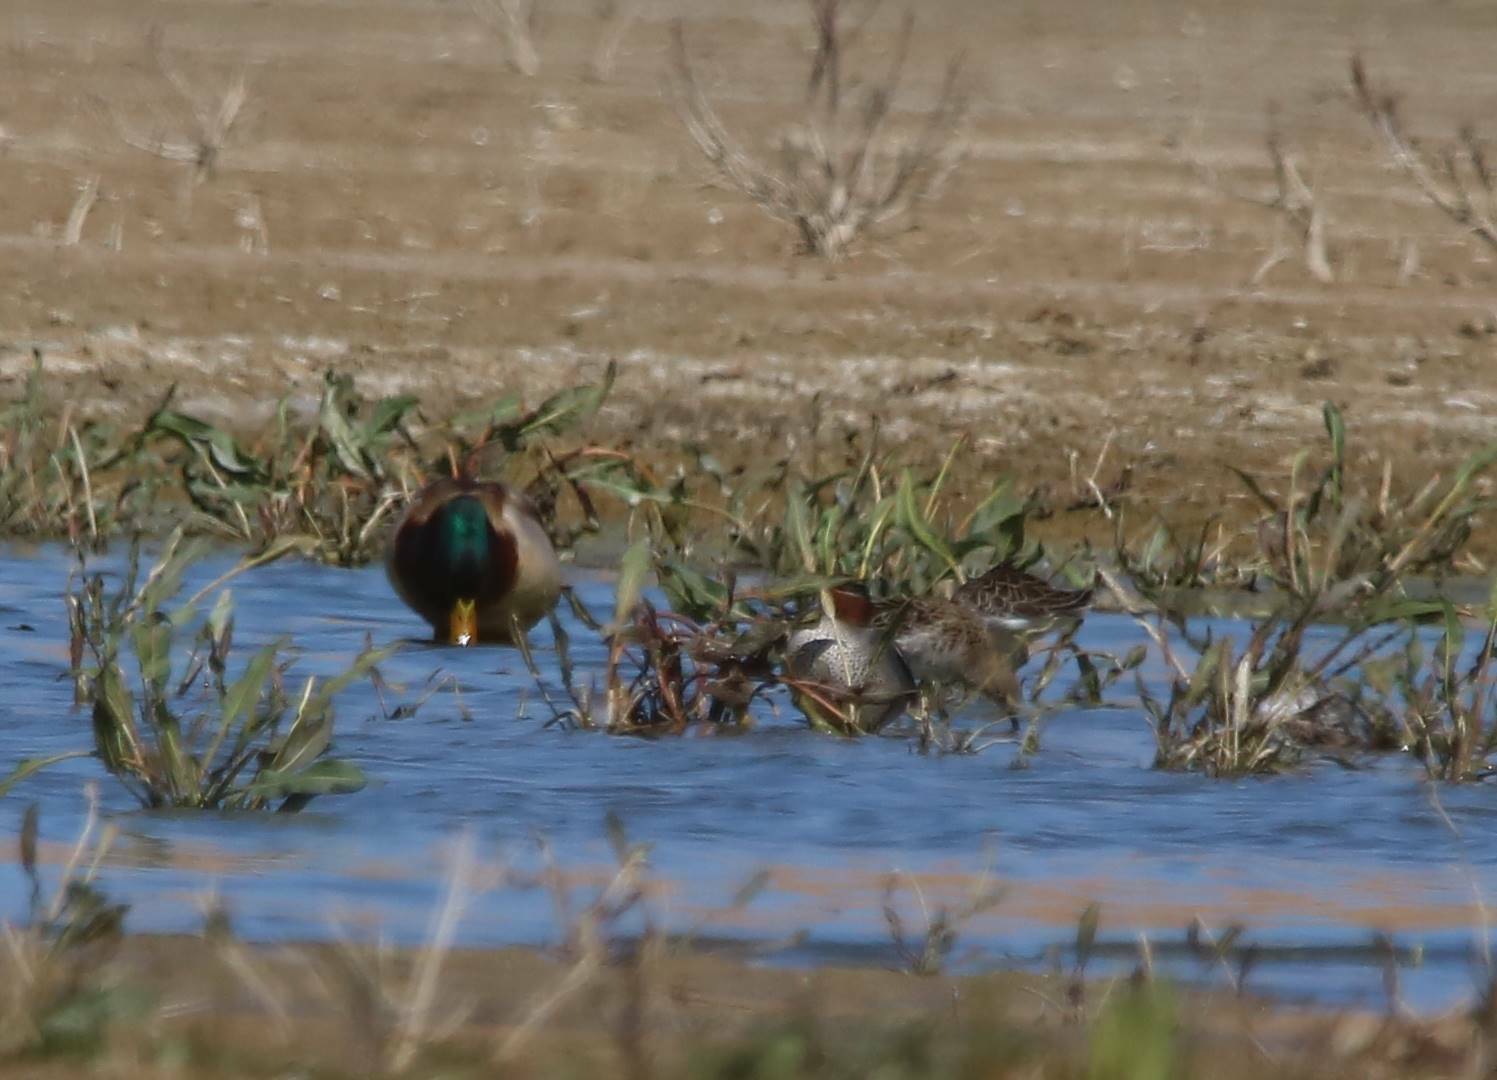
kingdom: Animalia
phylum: Chordata
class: Aves
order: Charadriiformes
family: Scolopacidae
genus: Calidris
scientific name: Calidris pugnax
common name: Ruff
